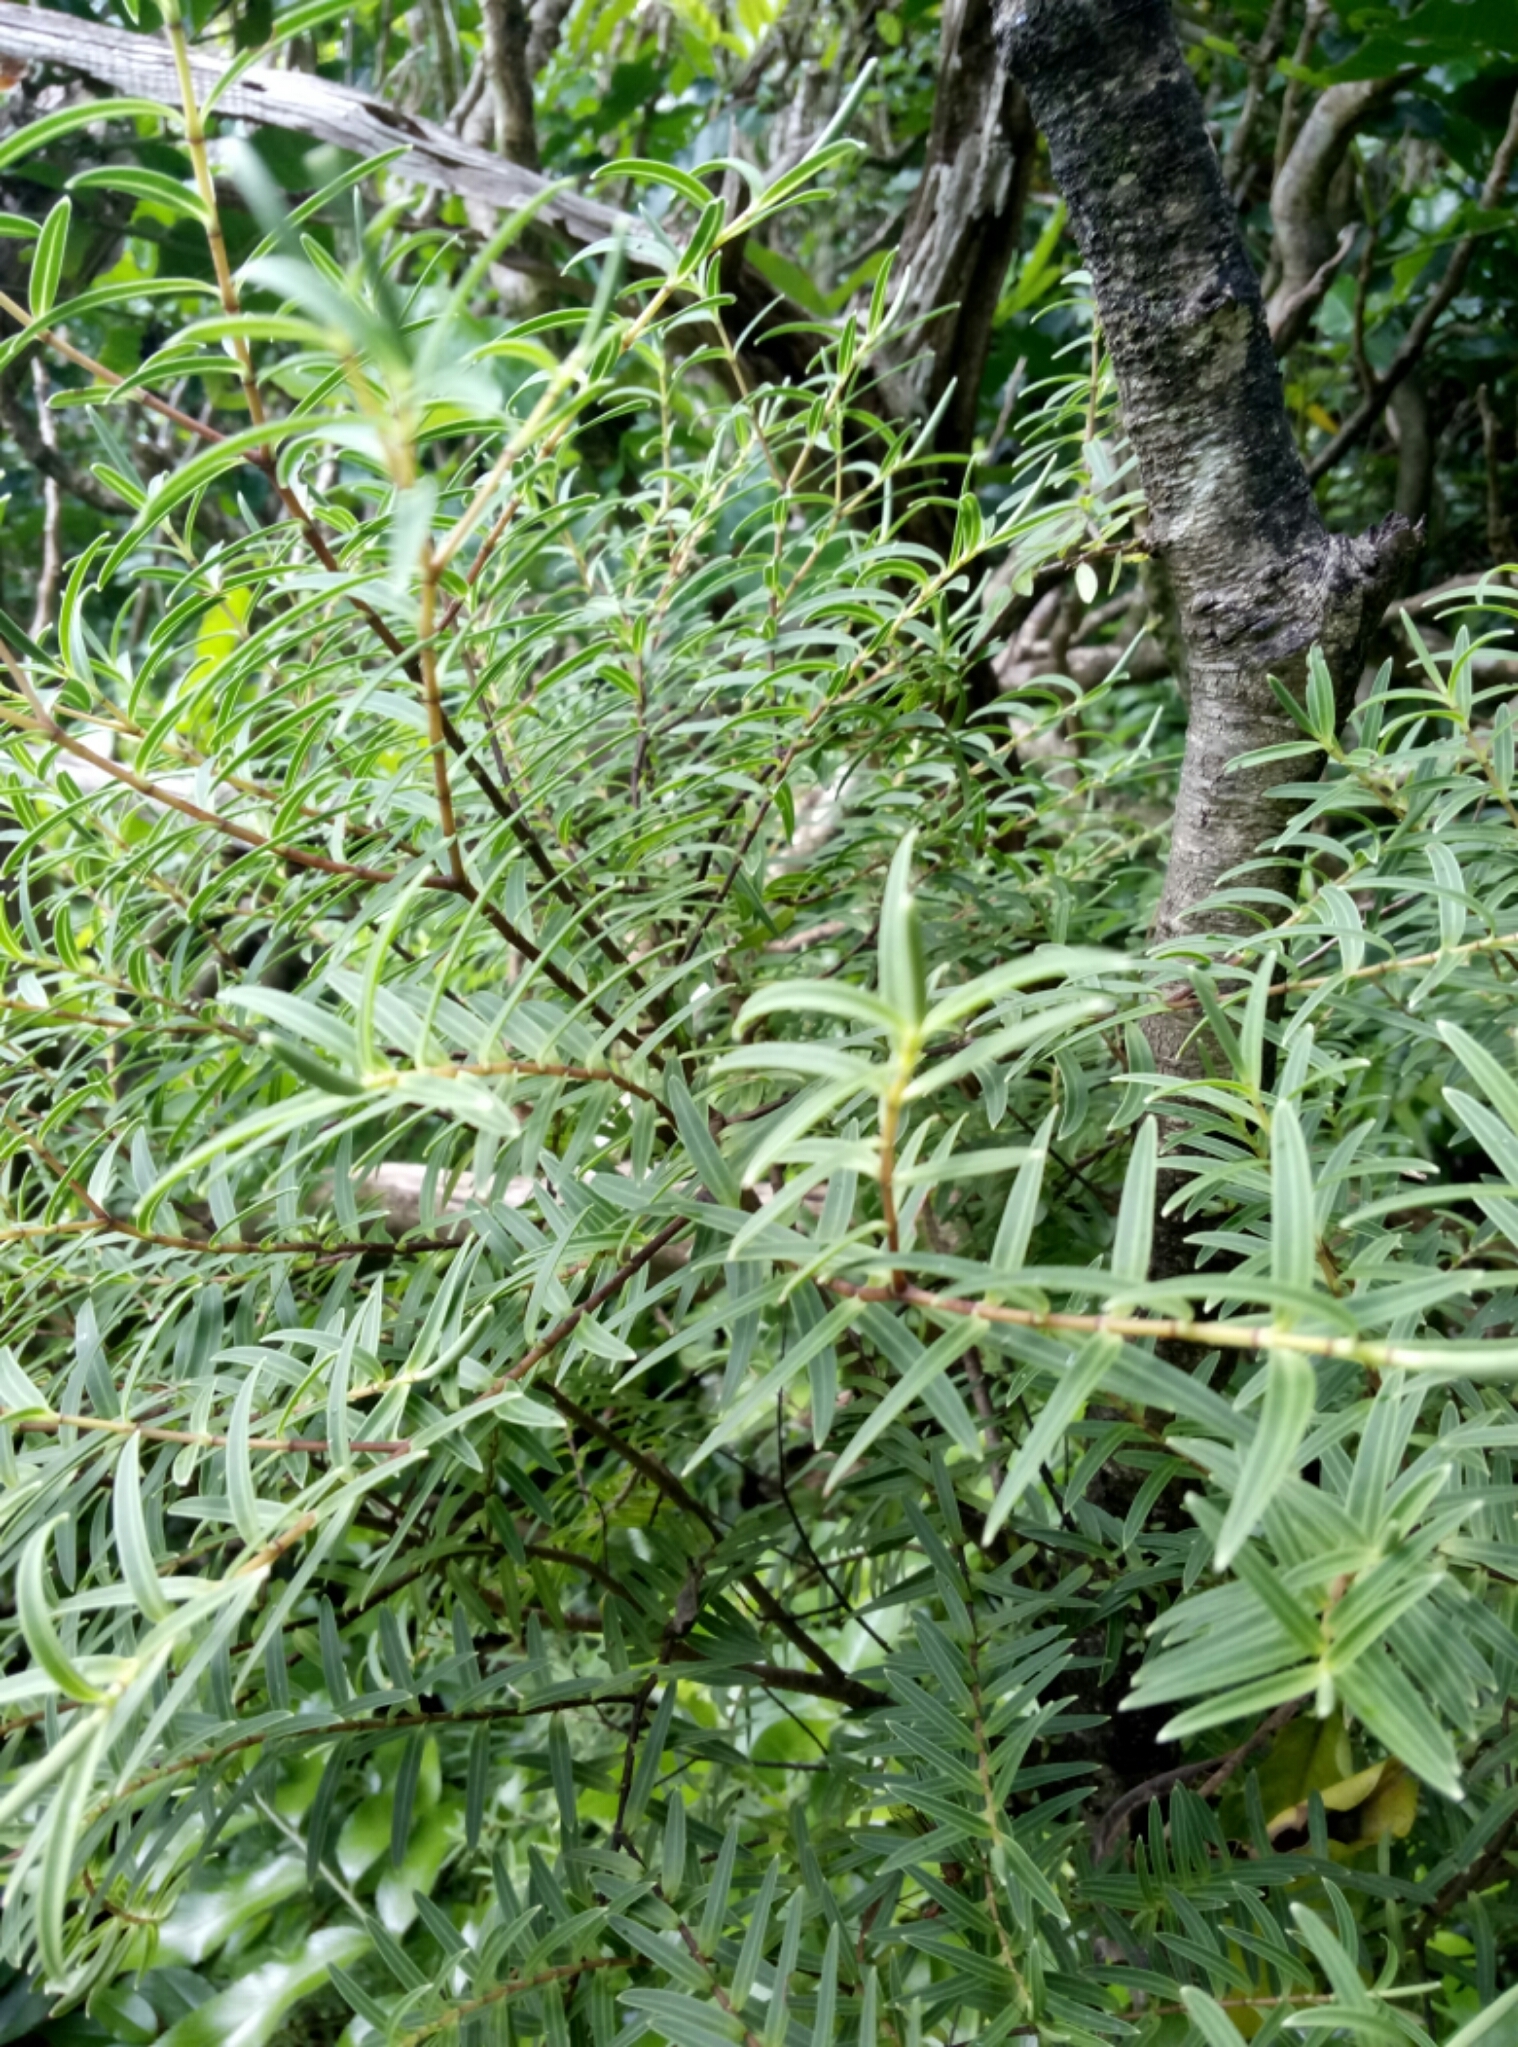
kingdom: Plantae
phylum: Tracheophyta
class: Magnoliopsida
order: Lamiales
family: Plantaginaceae
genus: Veronica
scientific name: Veronica parviflora
